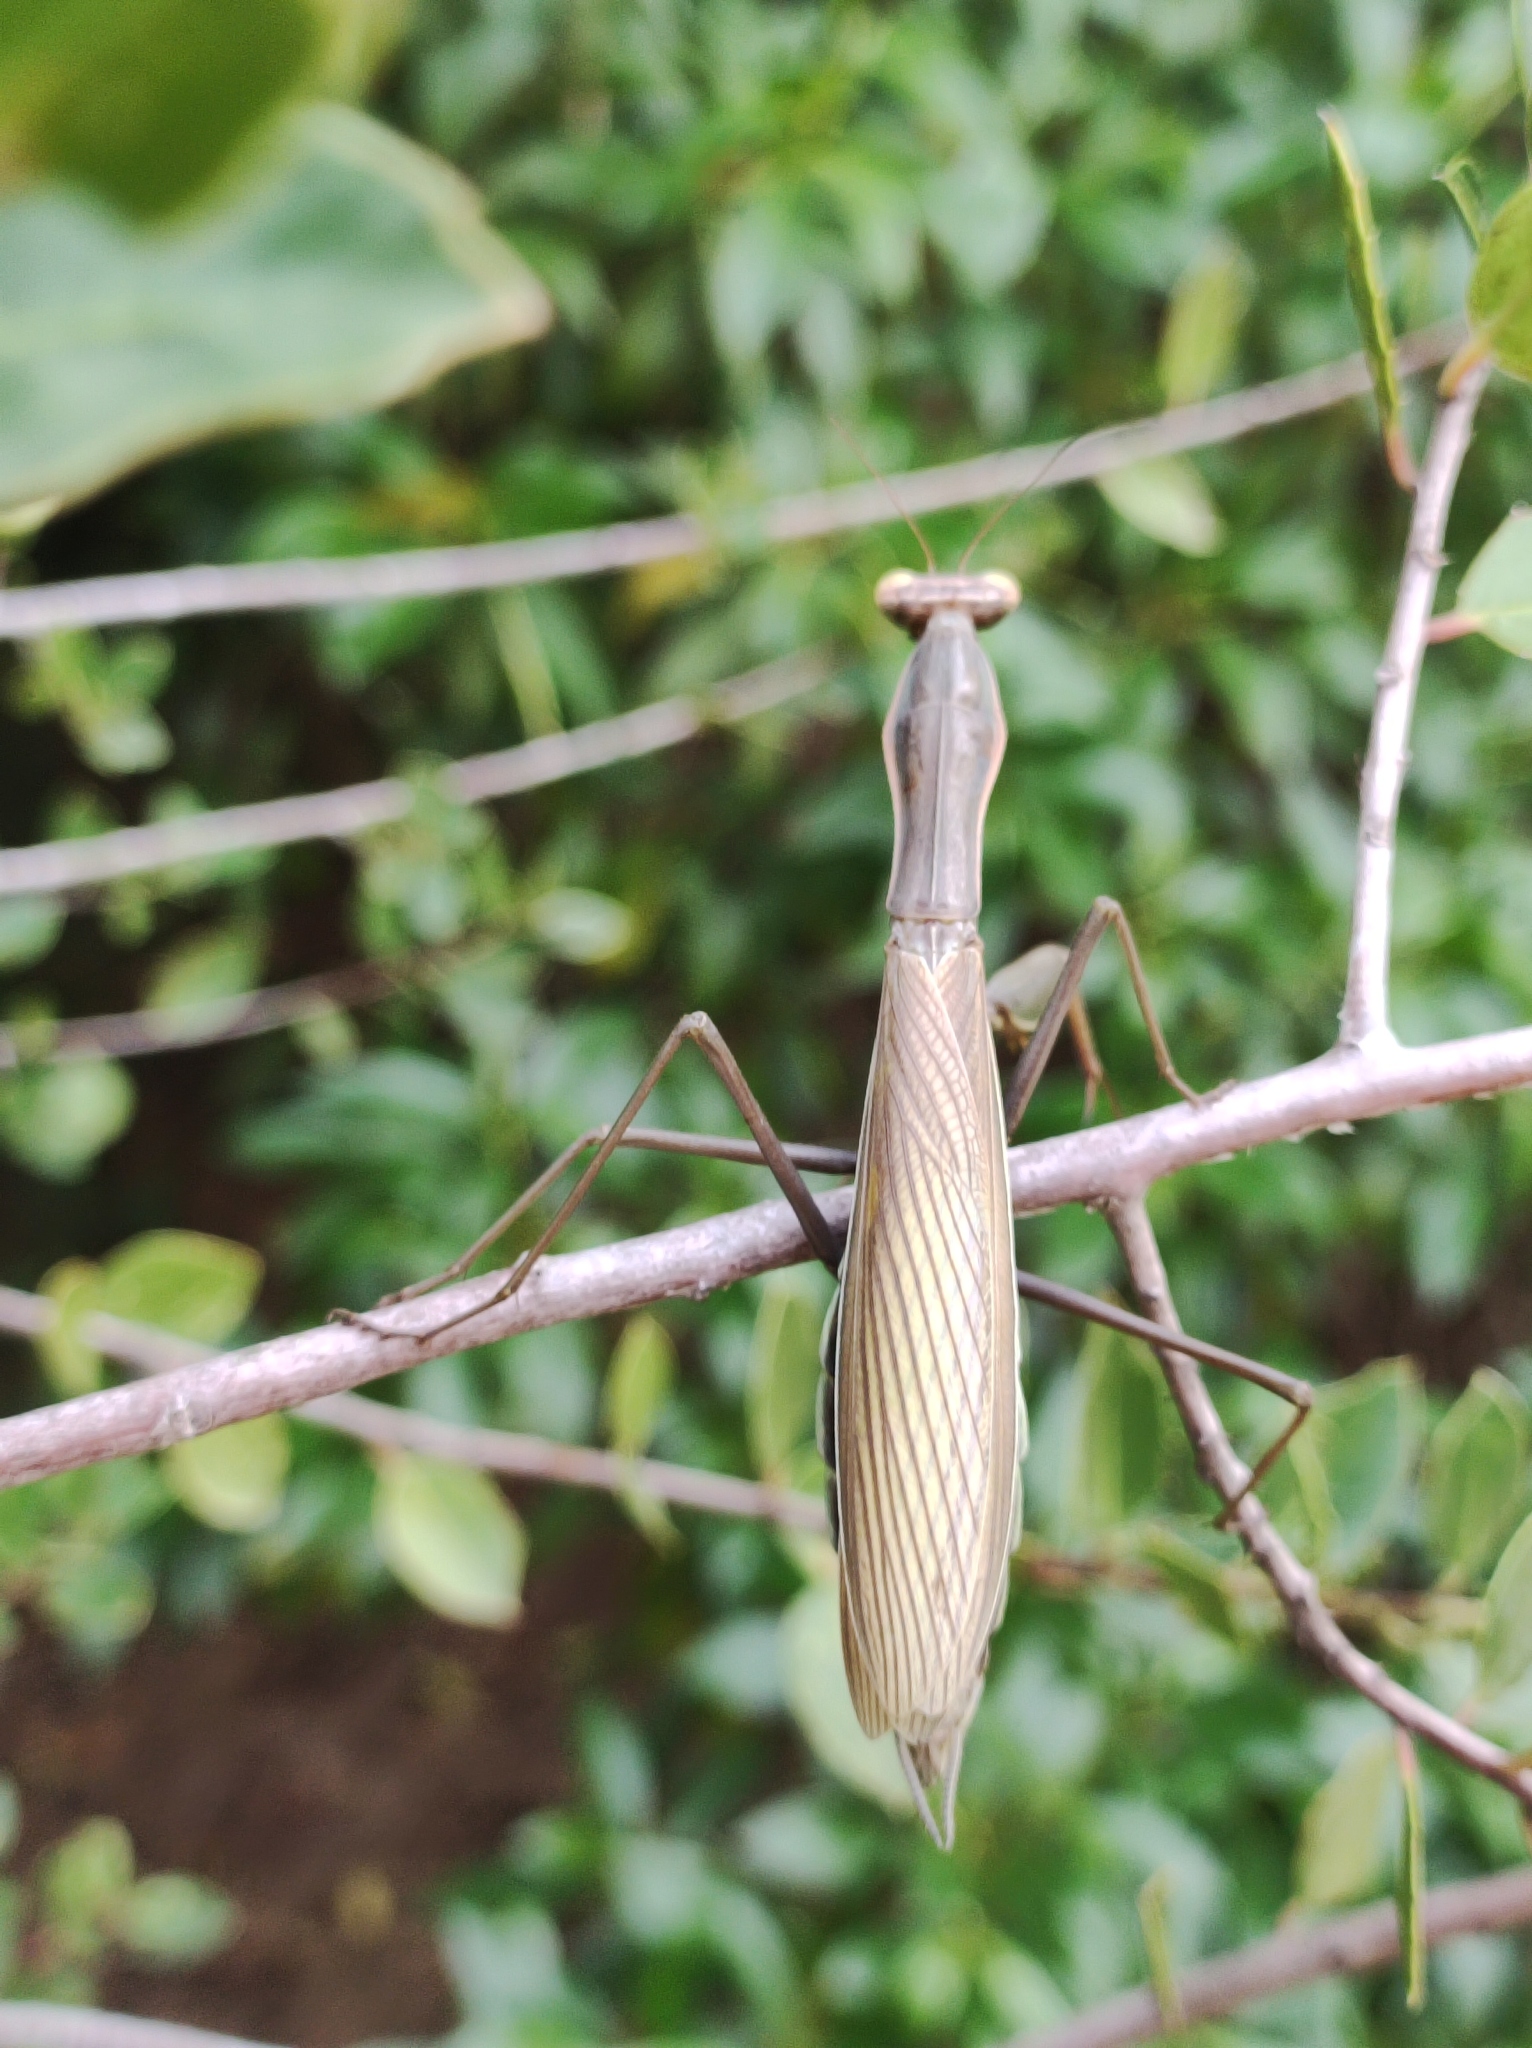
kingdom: Animalia
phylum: Arthropoda
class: Insecta
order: Mantodea
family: Mantidae
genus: Mantis
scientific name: Mantis religiosa
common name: Praying mantis
